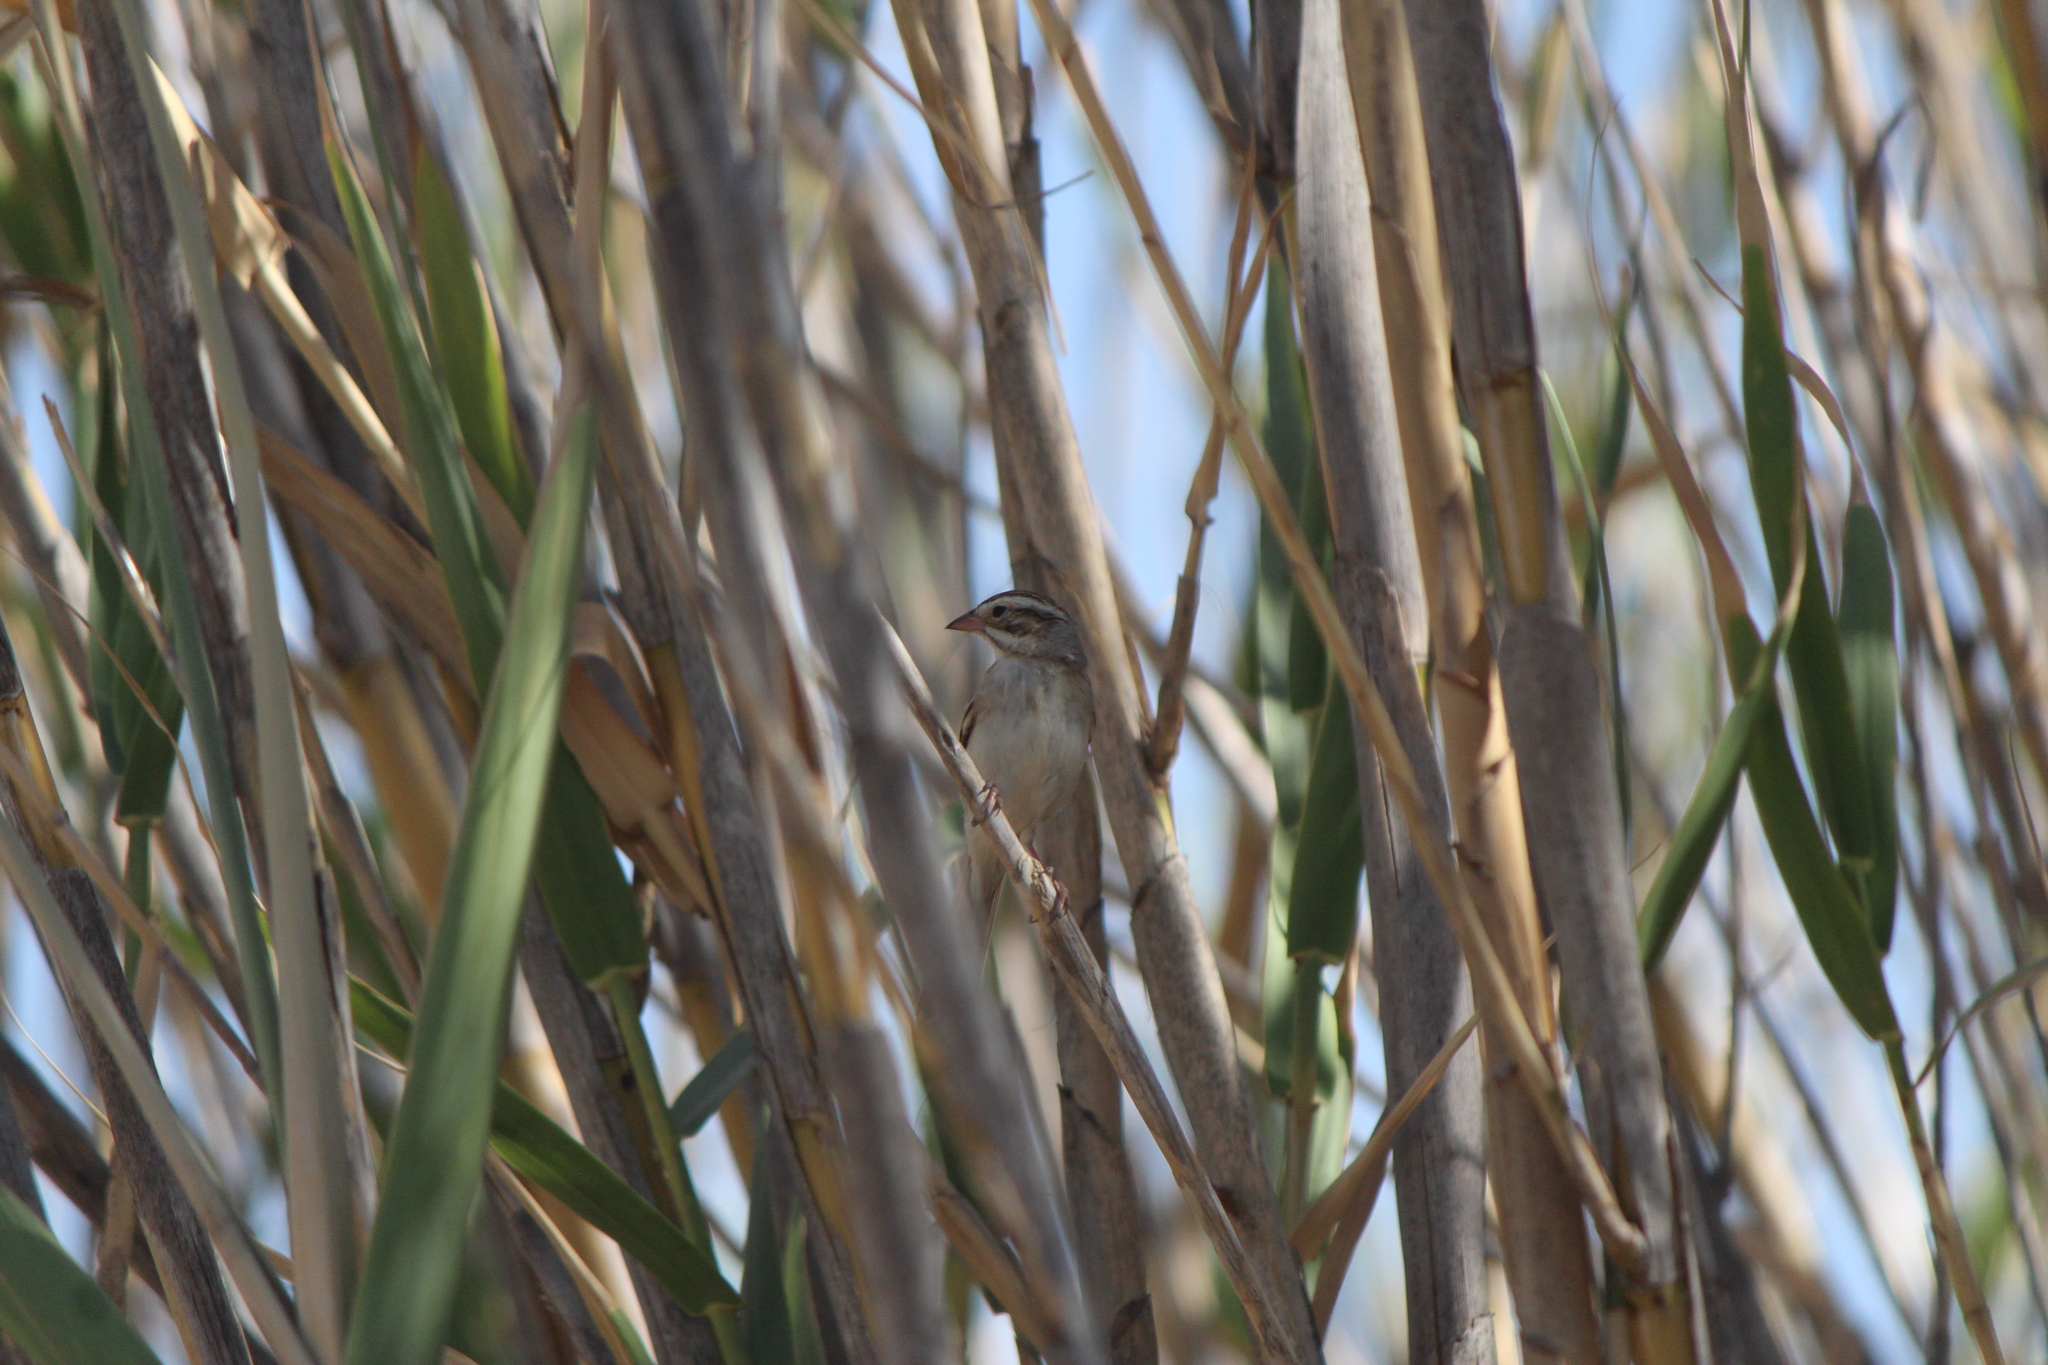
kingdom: Animalia
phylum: Chordata
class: Aves
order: Passeriformes
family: Passerellidae
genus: Spizella
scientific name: Spizella pallida
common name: Clay-colored sparrow
